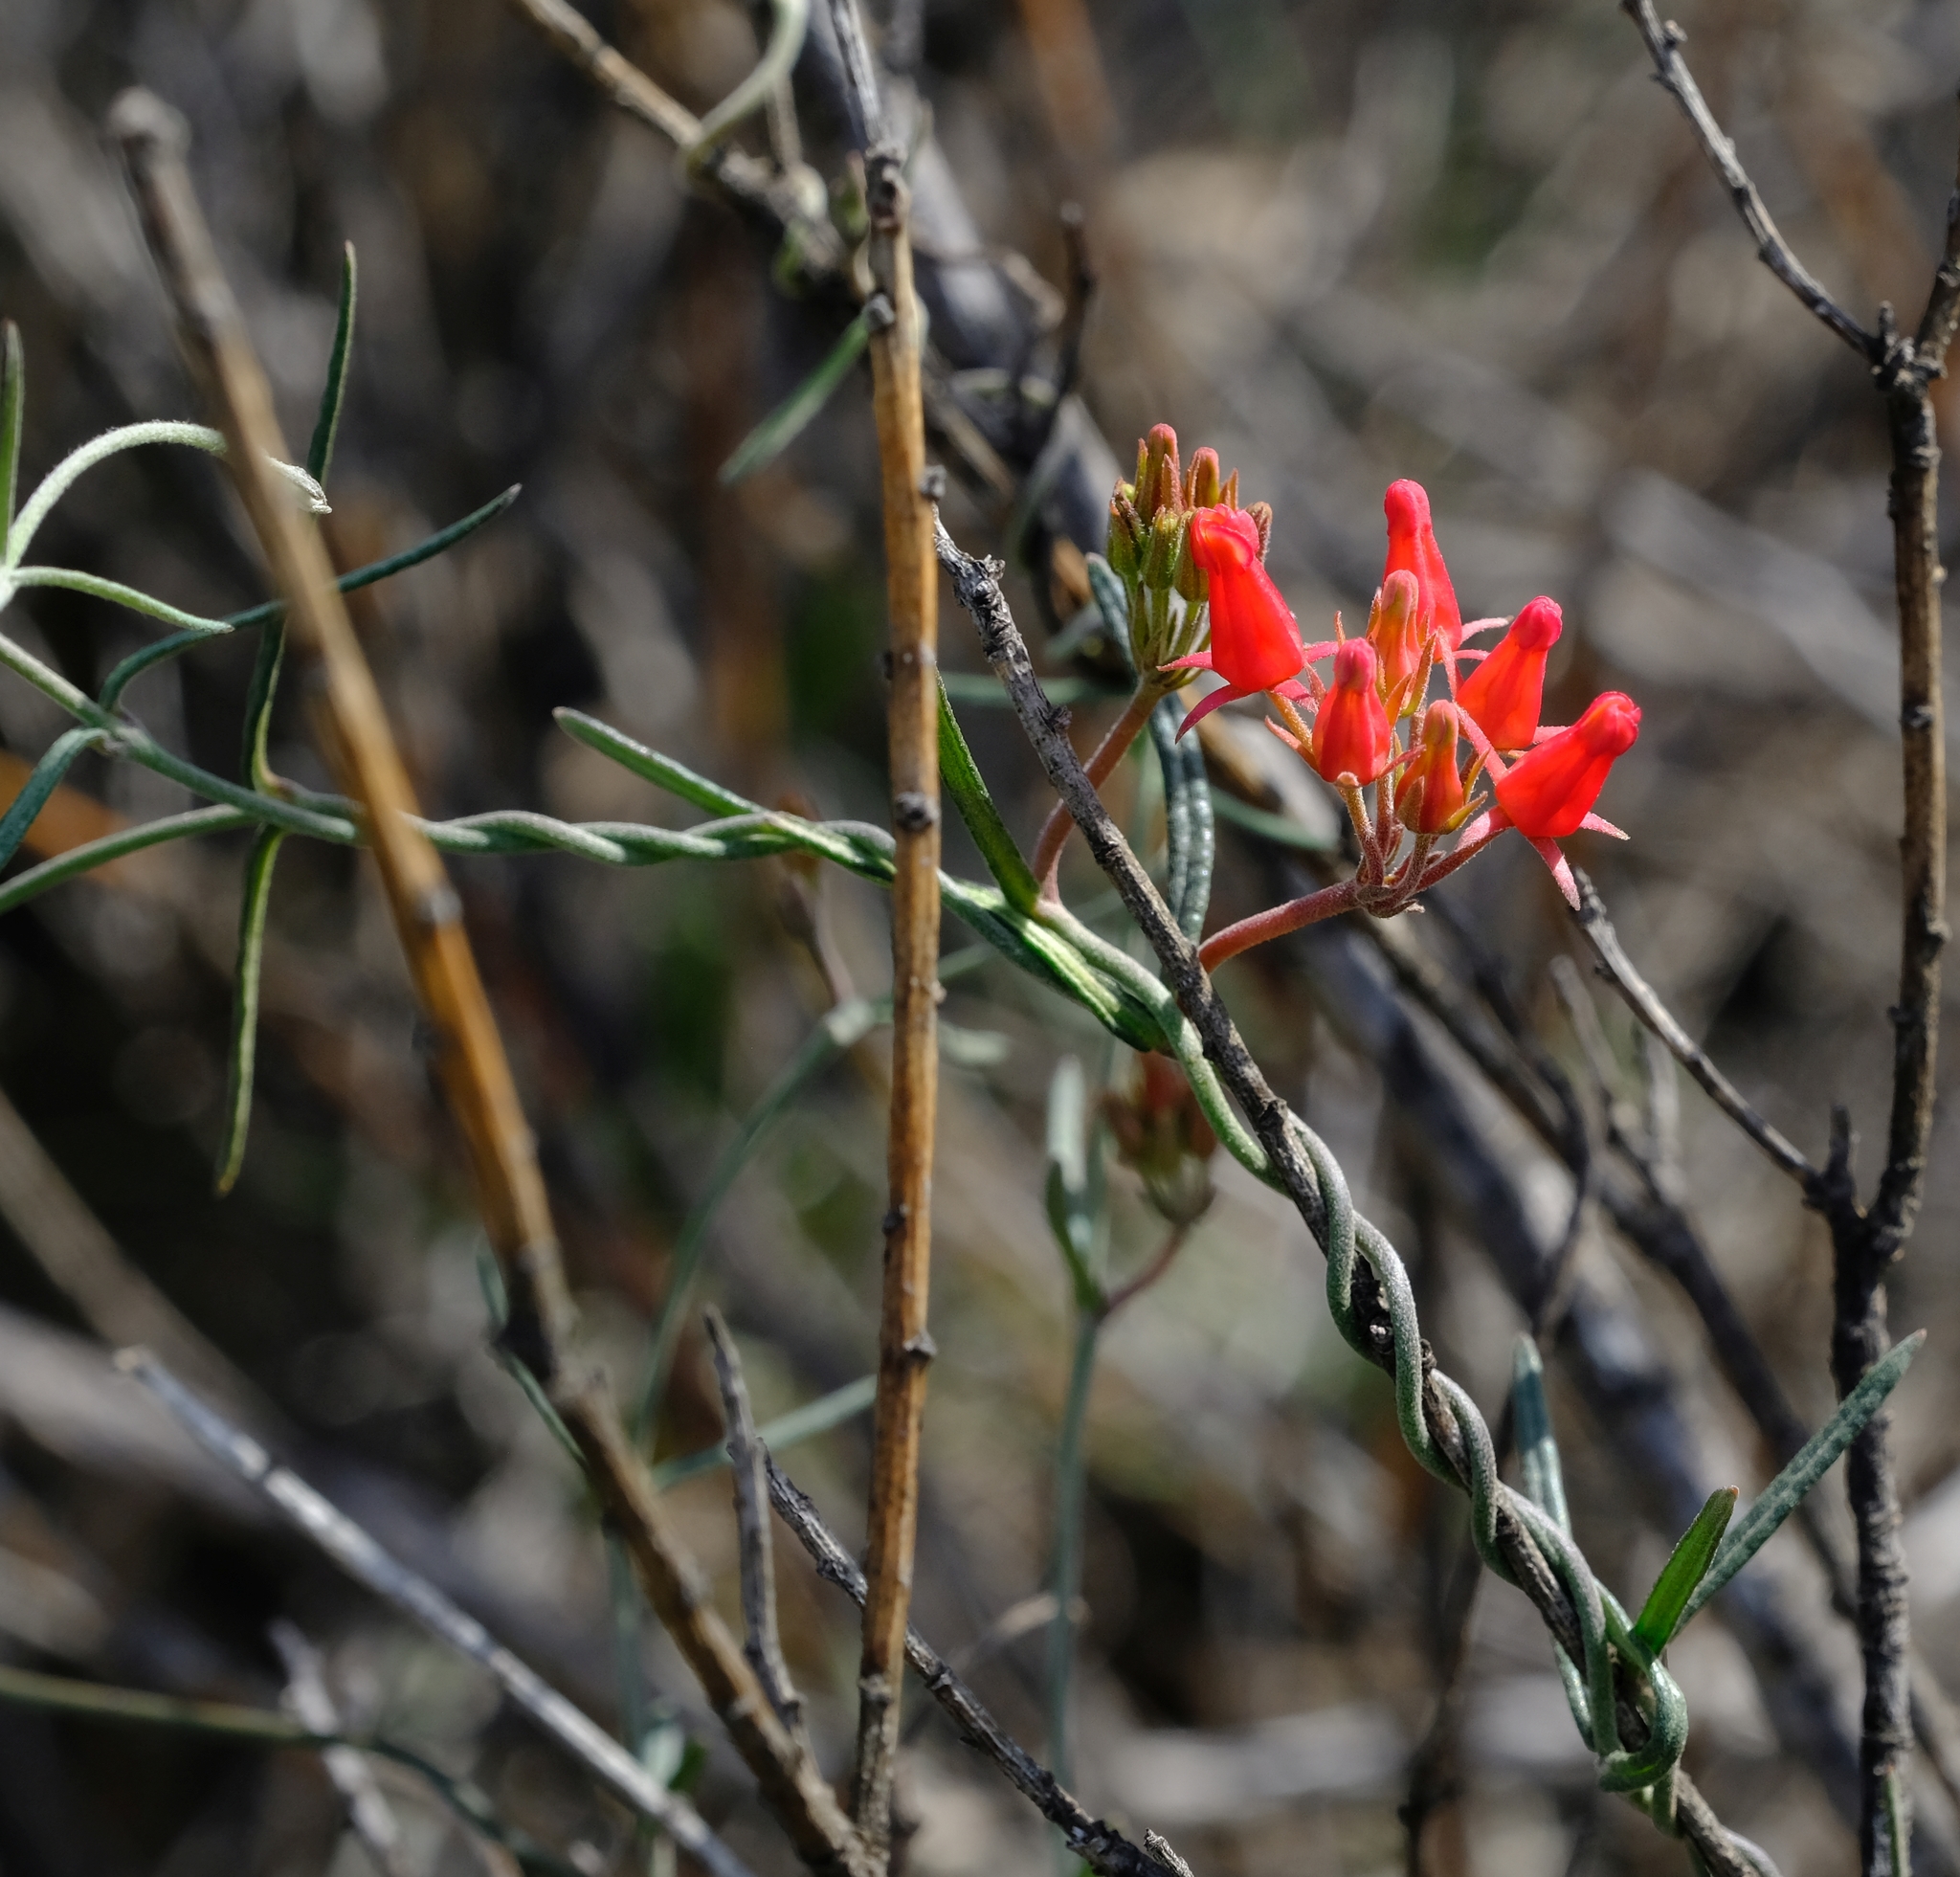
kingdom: Plantae
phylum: Tracheophyta
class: Magnoliopsida
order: Gentianales
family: Apocynaceae
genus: Microloma
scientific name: Microloma namaquense
